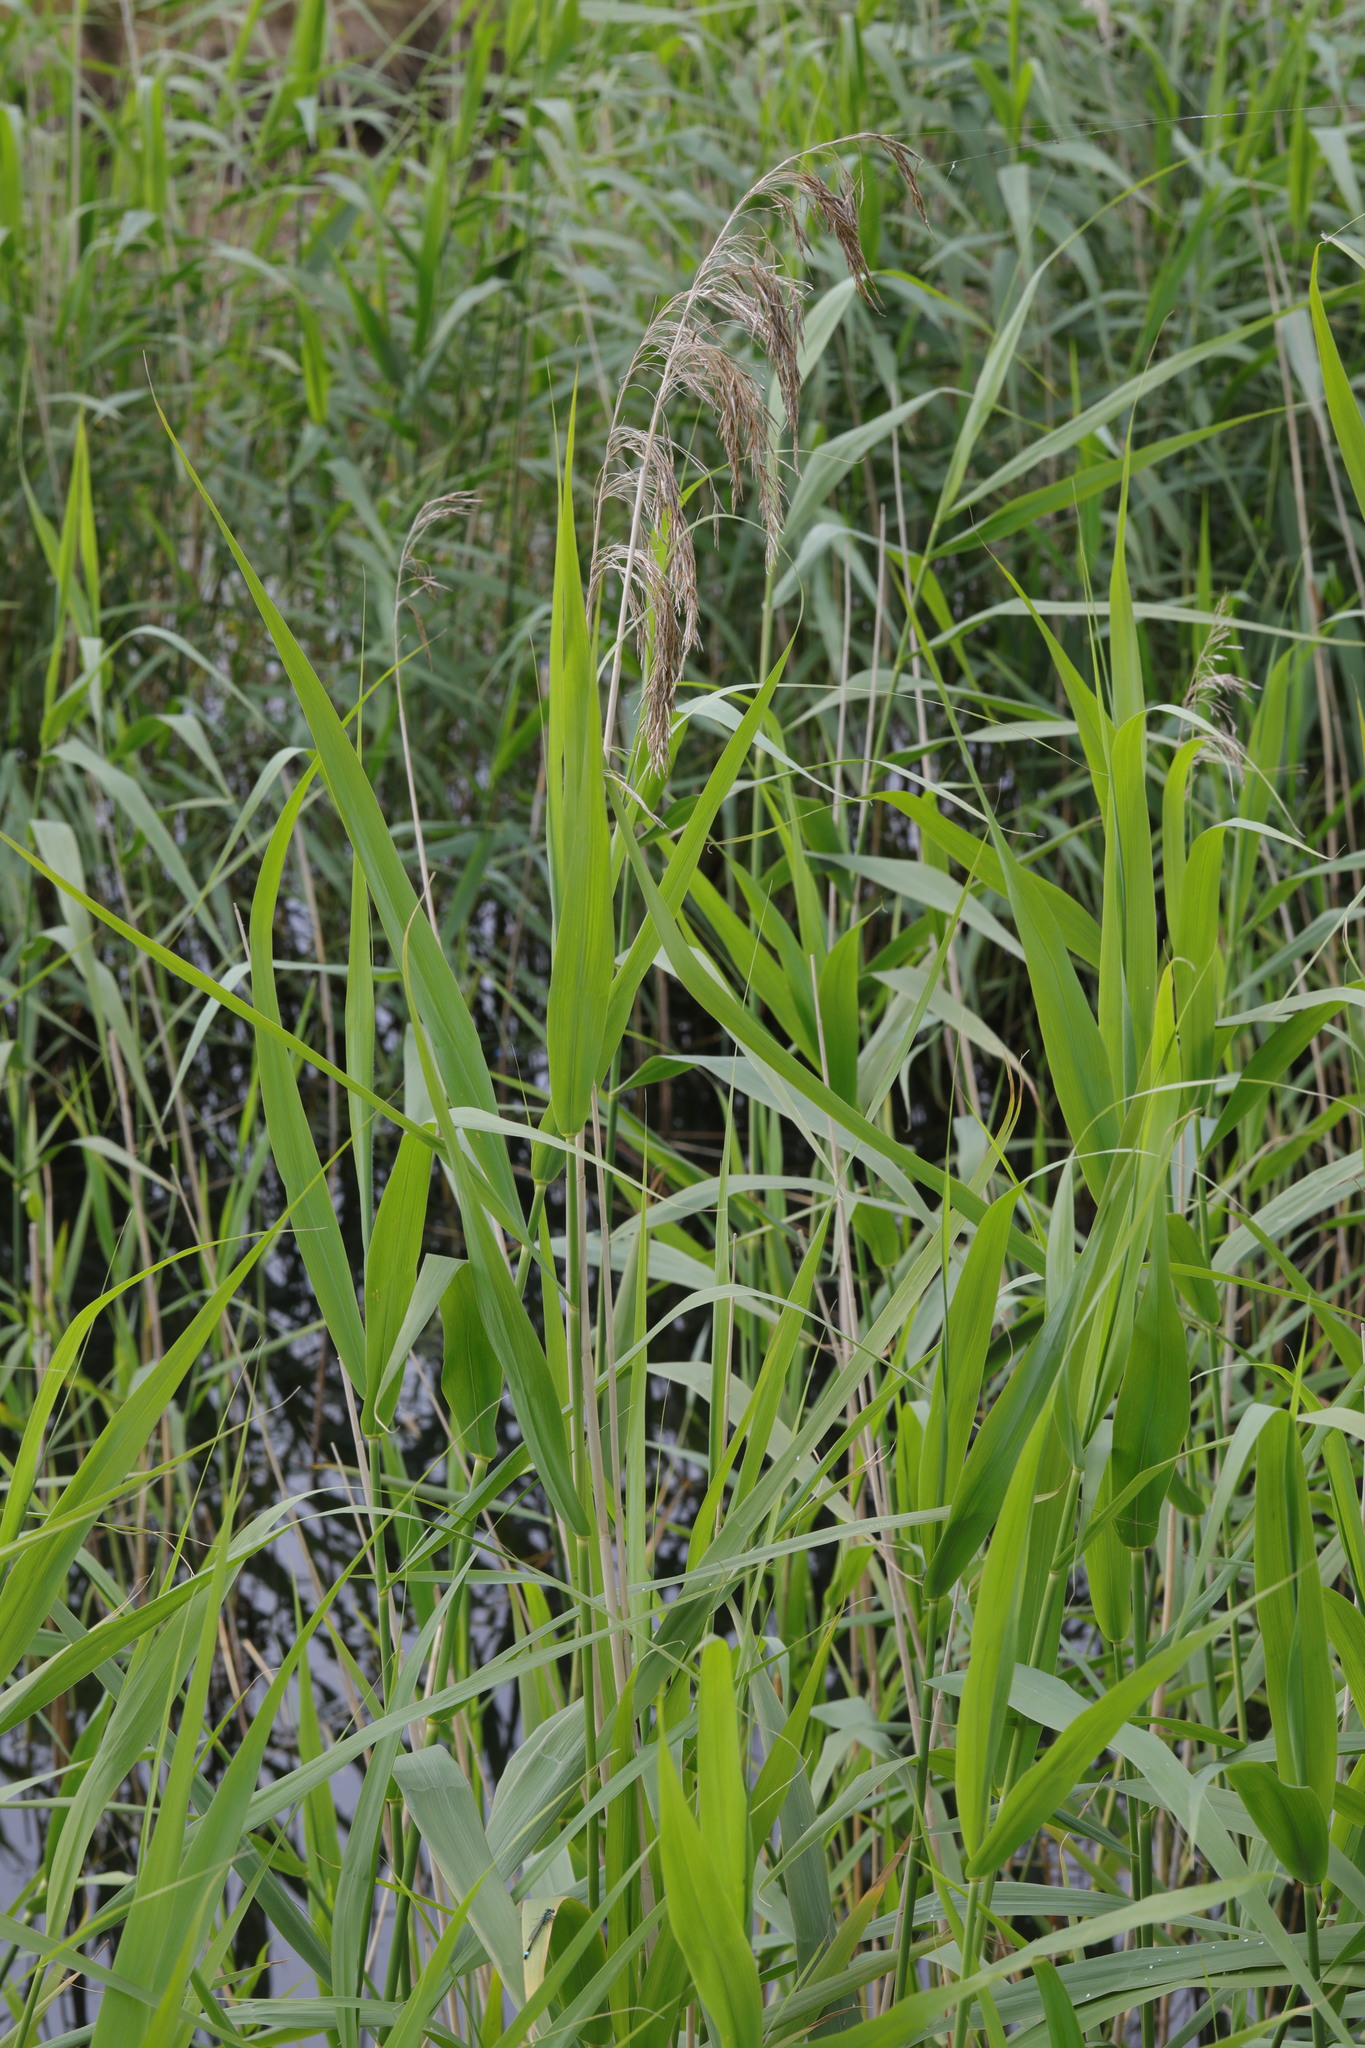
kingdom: Plantae
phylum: Tracheophyta
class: Liliopsida
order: Poales
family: Poaceae
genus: Phragmites
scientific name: Phragmites australis
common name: Common reed
